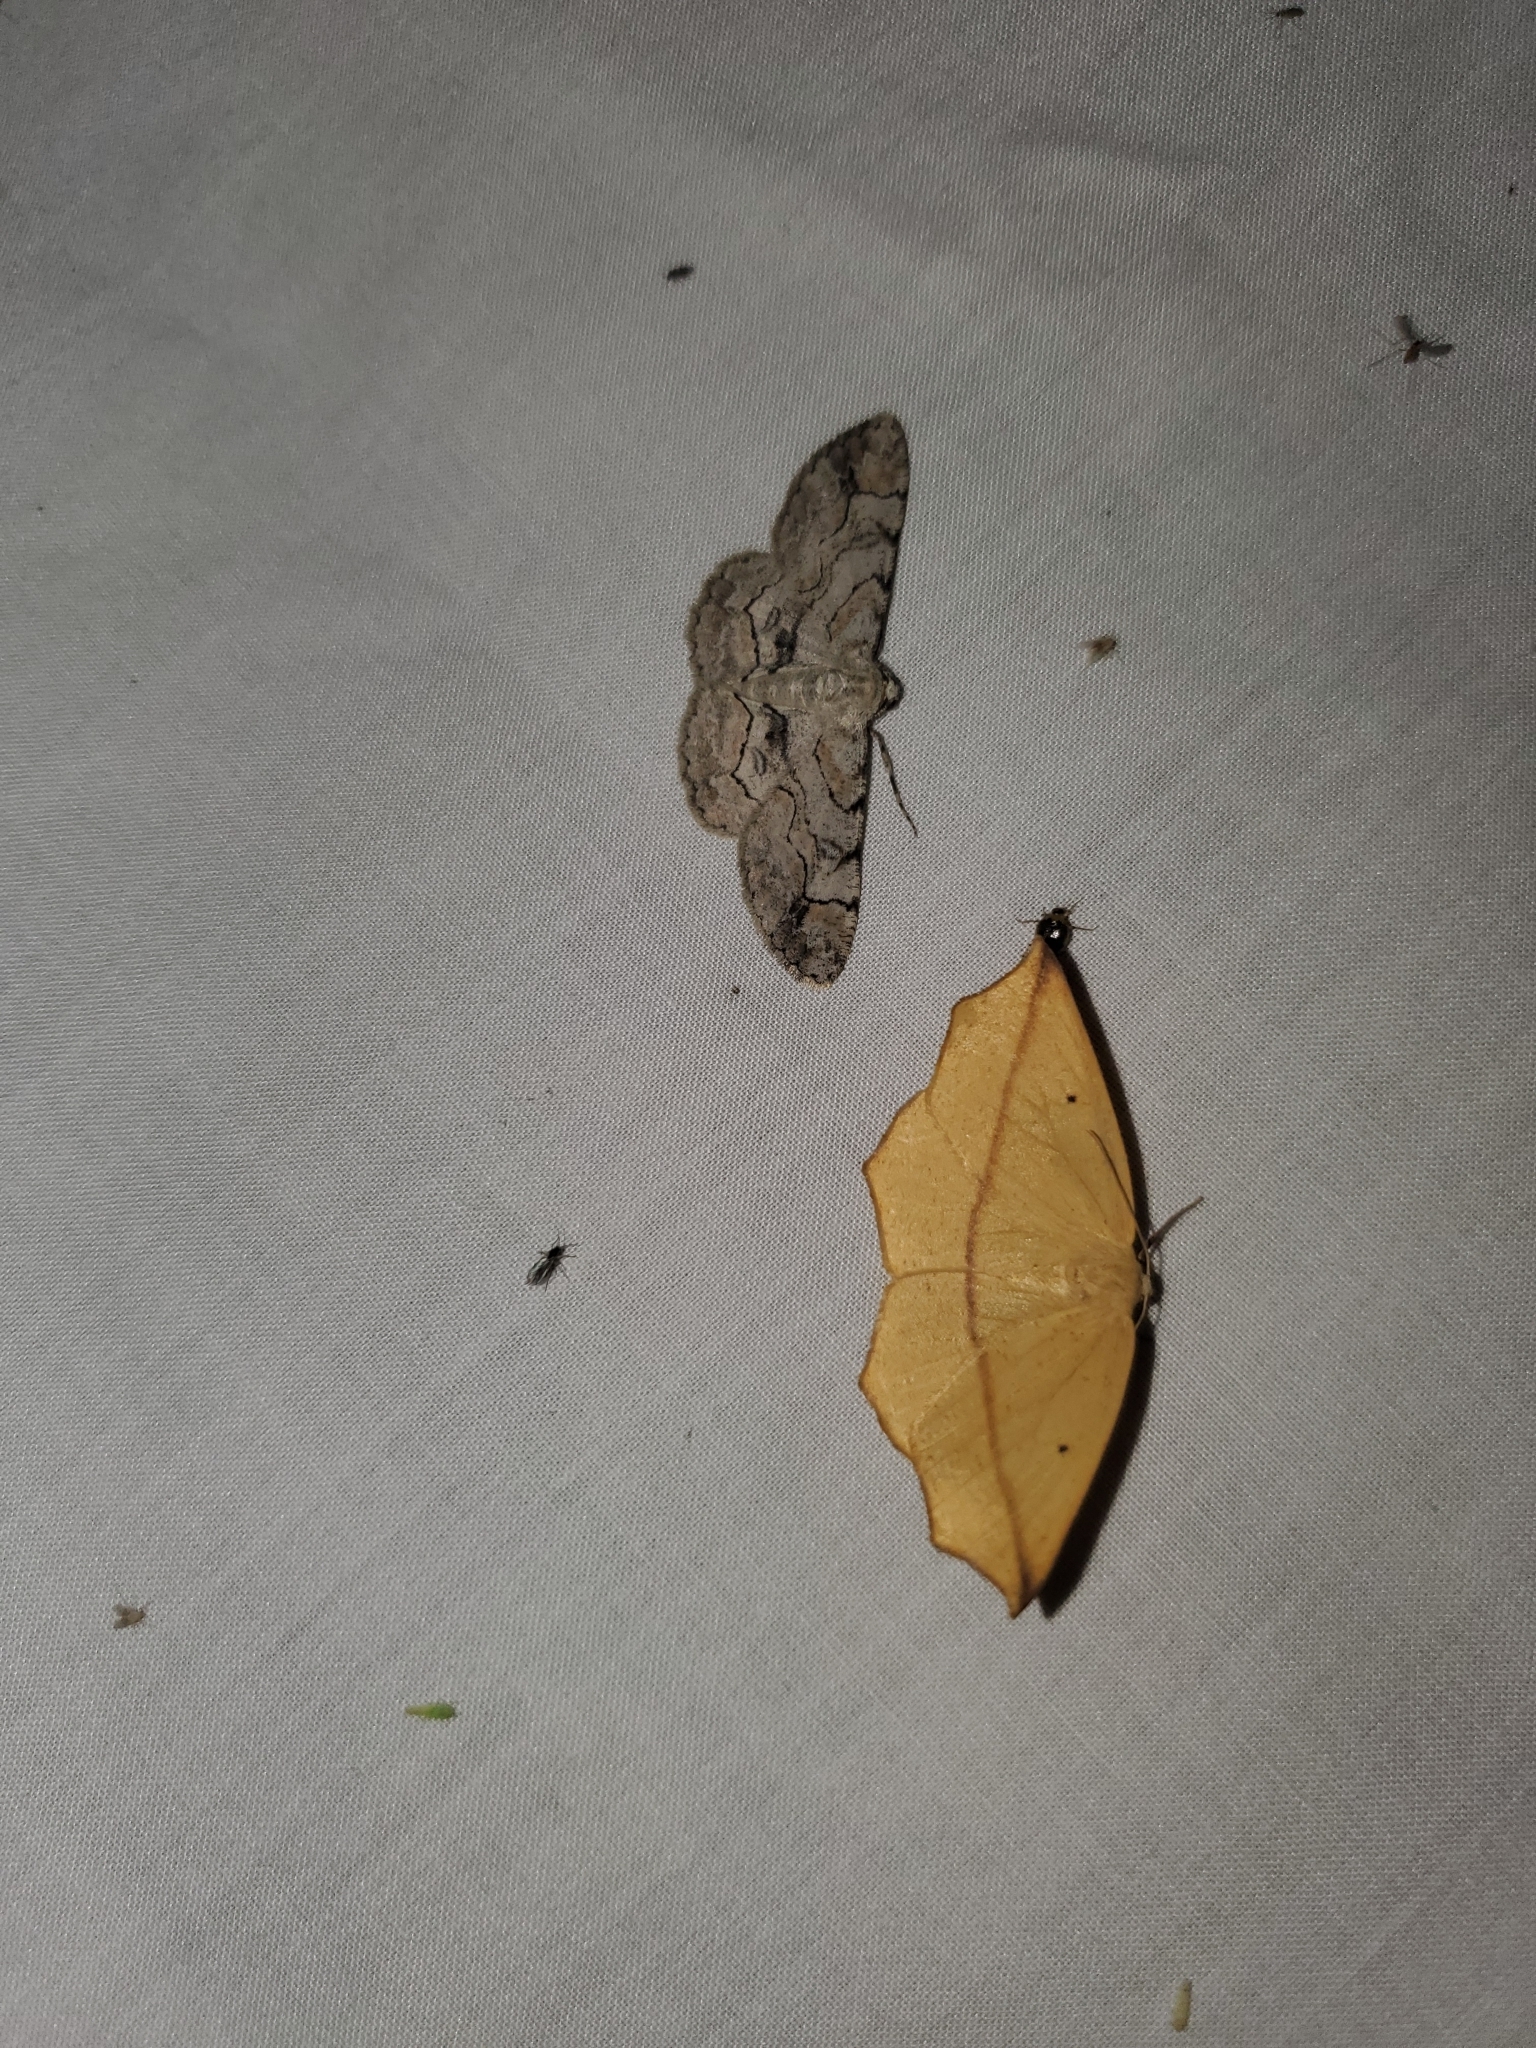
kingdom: Animalia
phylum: Arthropoda
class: Insecta
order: Lepidoptera
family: Geometridae
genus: Tetracis
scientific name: Tetracis crocallata
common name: Yellow slant-line
